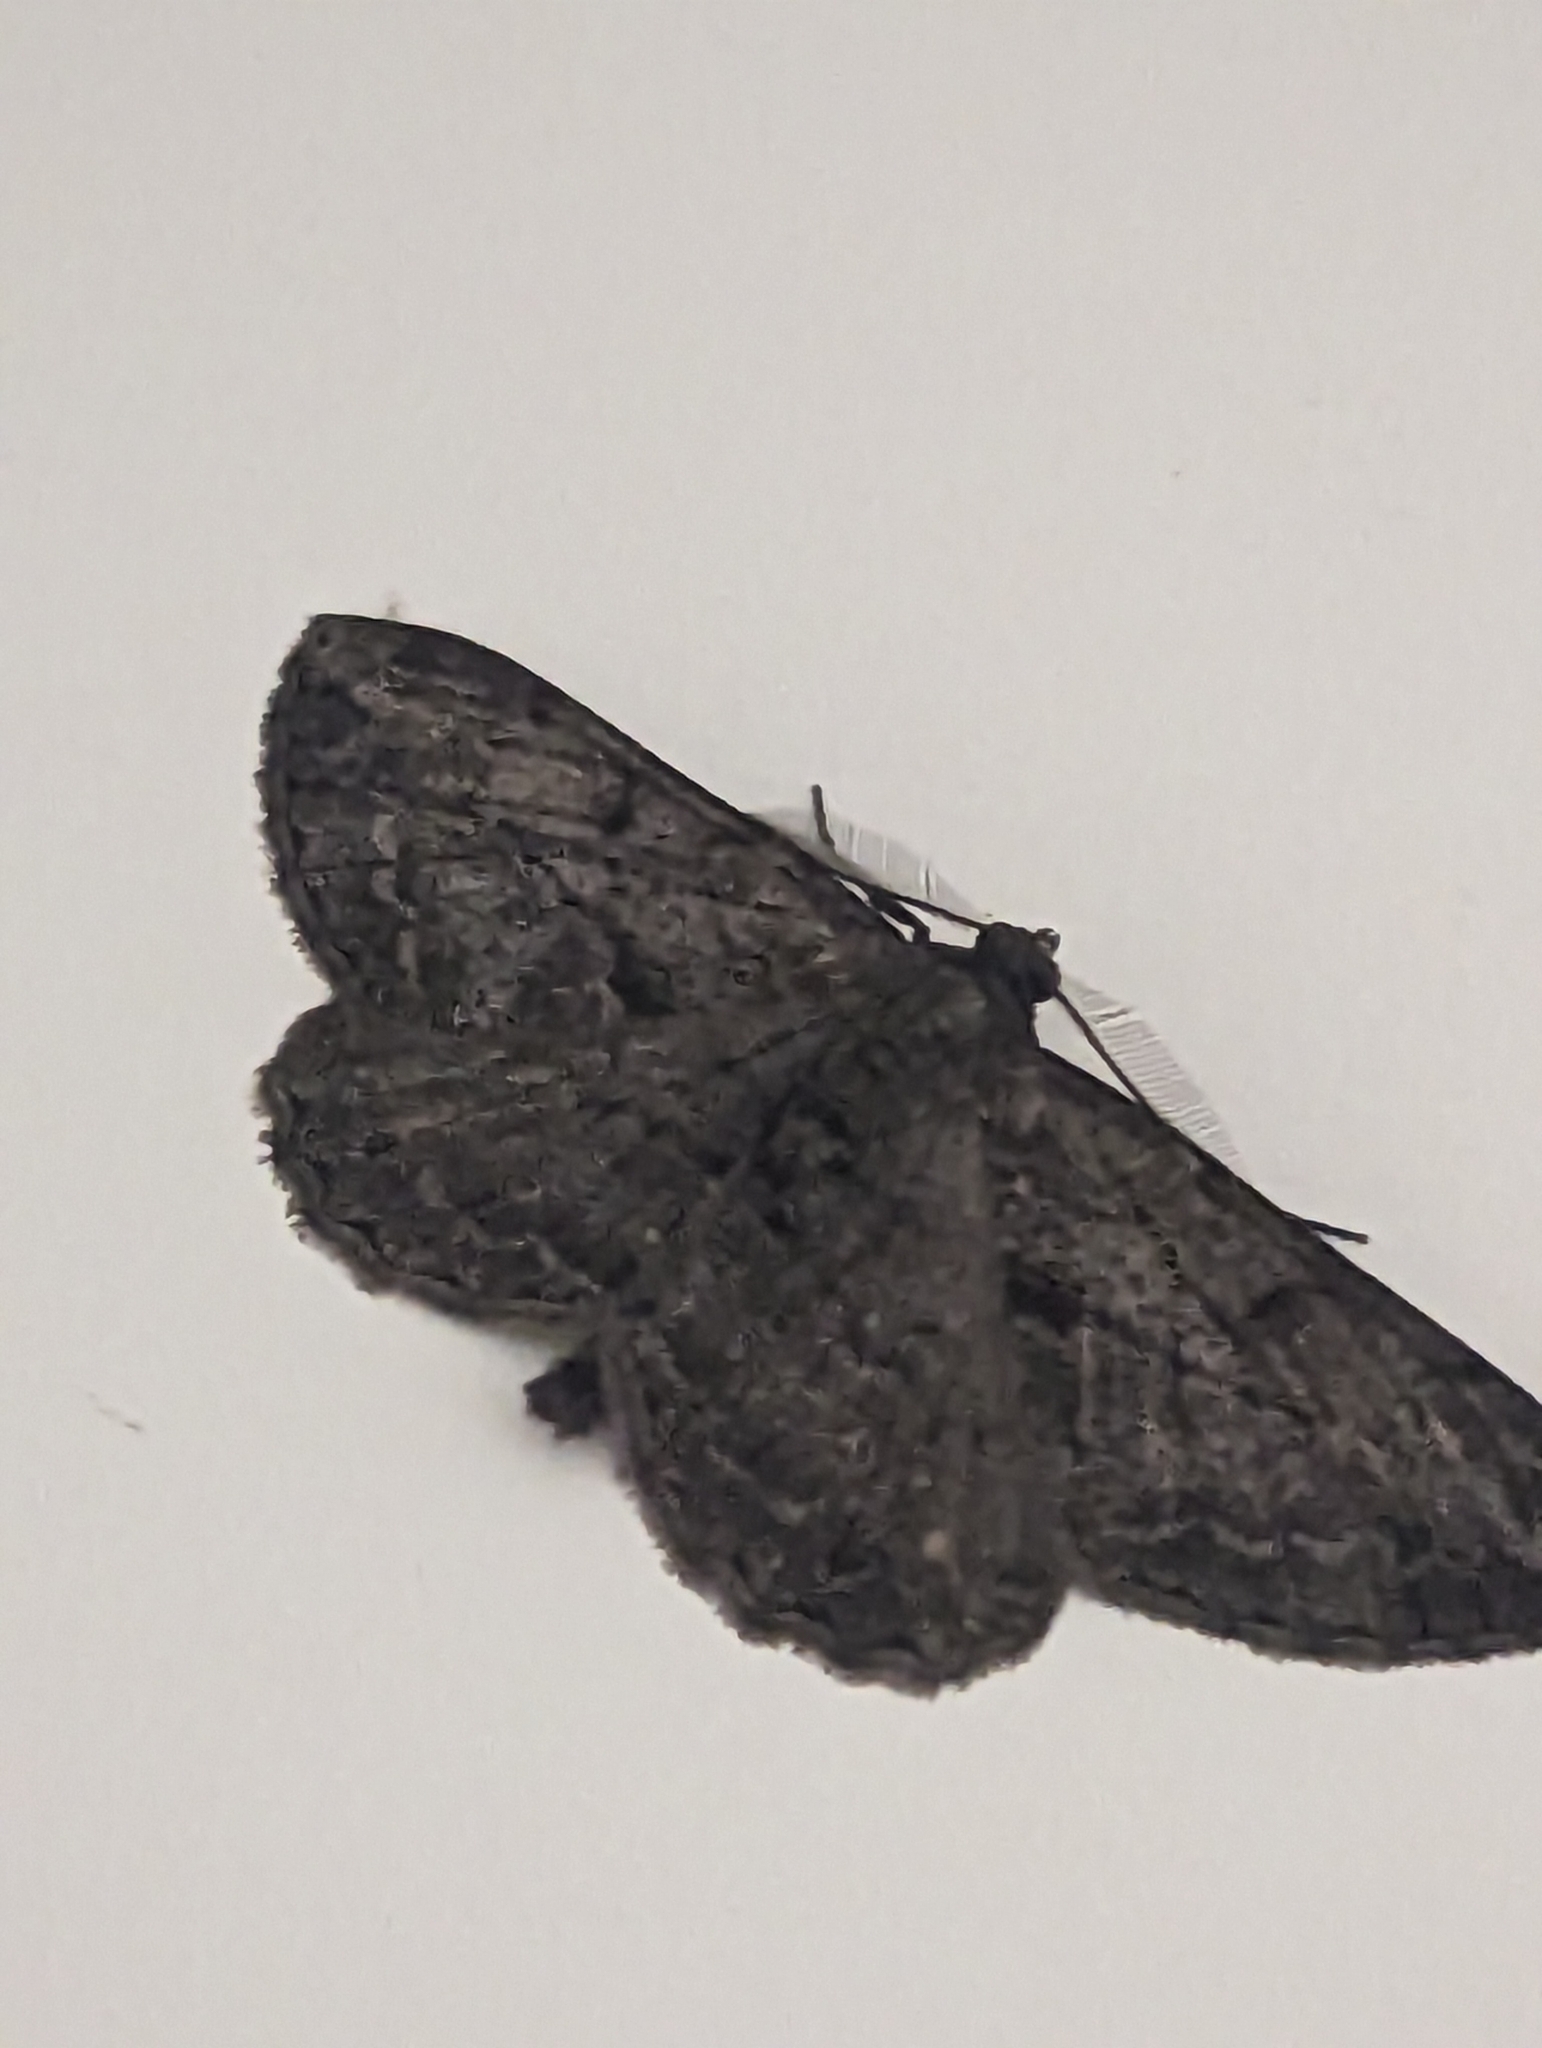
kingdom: Animalia
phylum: Arthropoda
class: Insecta
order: Lepidoptera
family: Geometridae
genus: Peribatodes
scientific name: Peribatodes rhomboidaria
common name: Willow beauty
